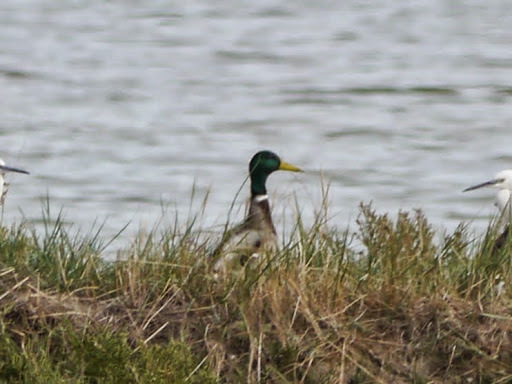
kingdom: Animalia
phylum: Chordata
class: Aves
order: Anseriformes
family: Anatidae
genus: Anas
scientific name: Anas platyrhynchos
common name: Mallard
